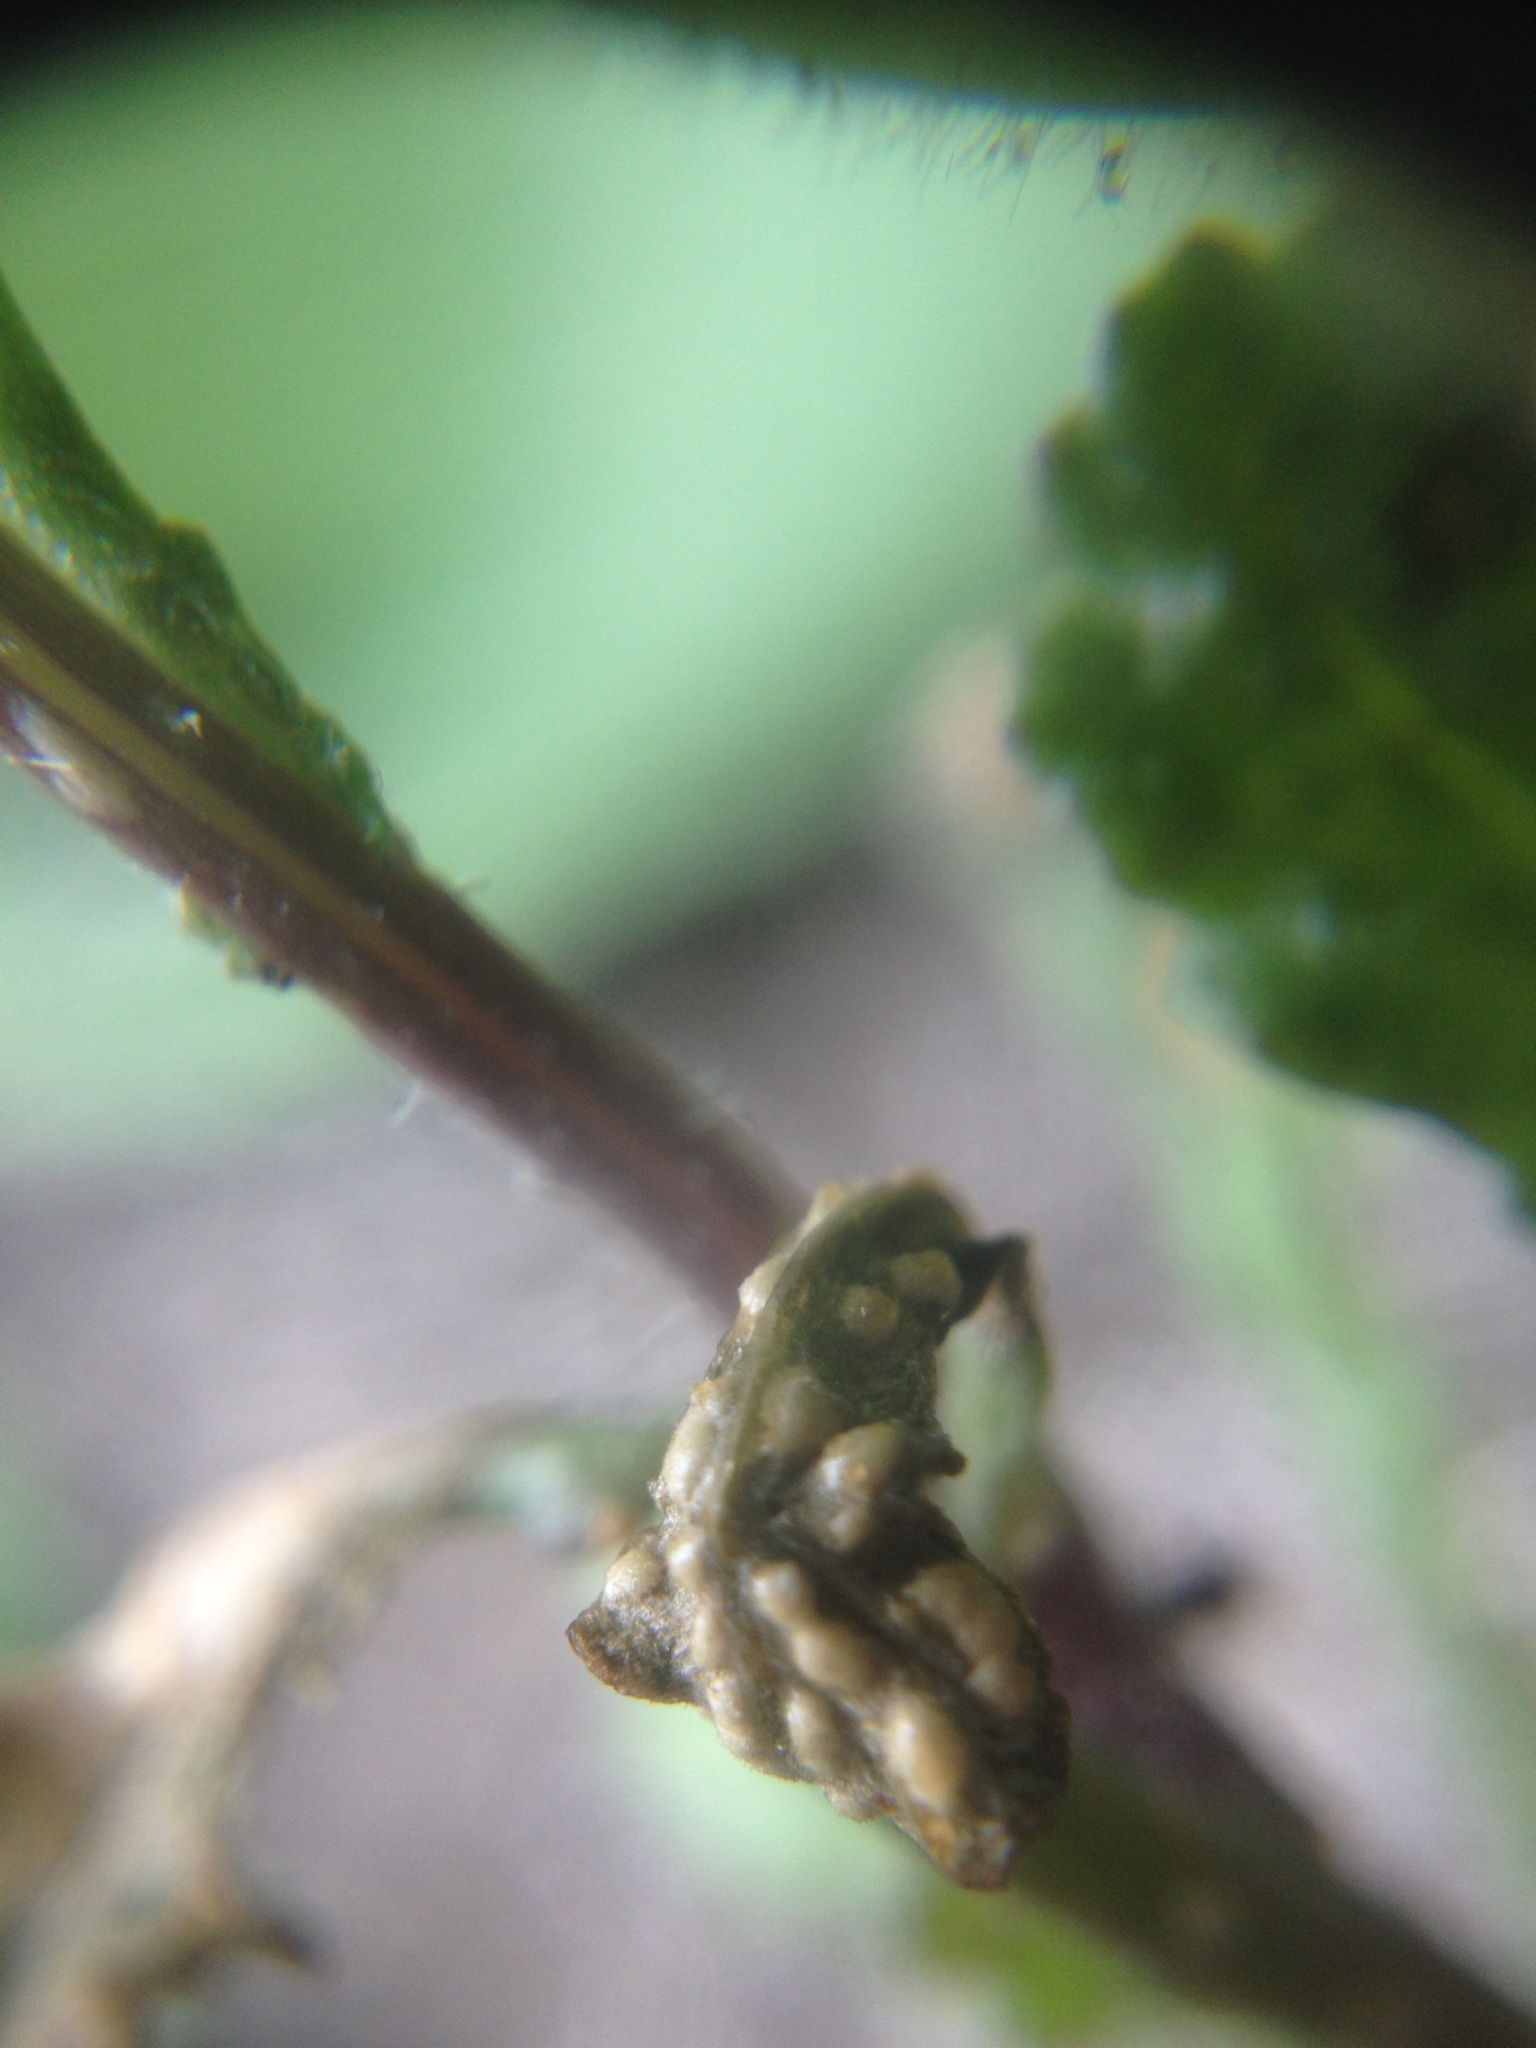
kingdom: Chromista
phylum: Oomycota
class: Peronosporea
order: Albuginales
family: Albuginaceae
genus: Pustula
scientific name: Pustula
